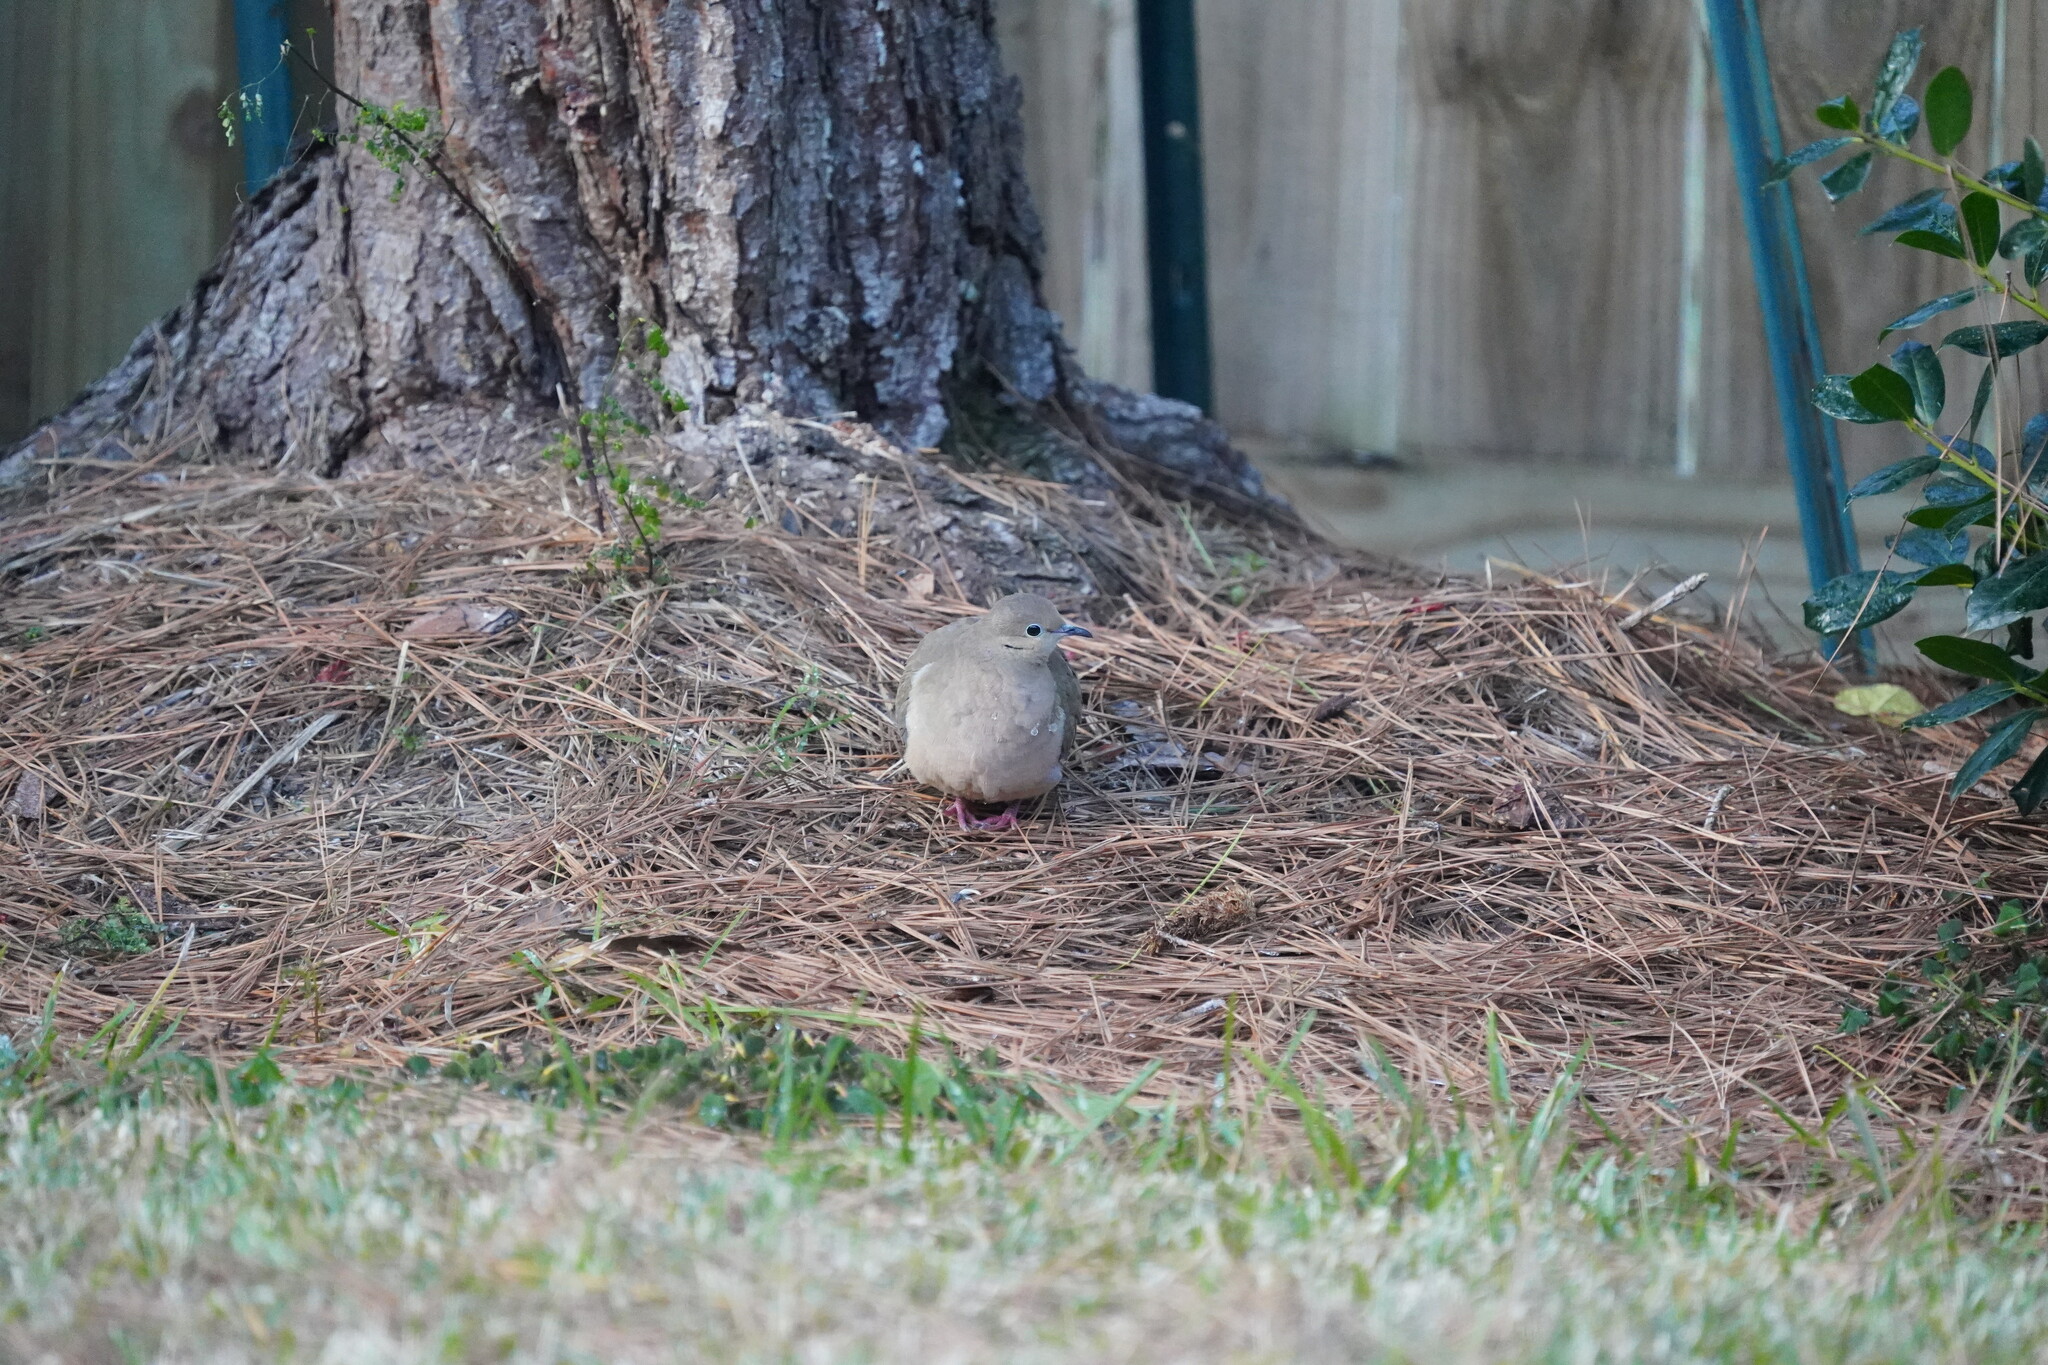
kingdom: Animalia
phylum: Chordata
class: Aves
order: Columbiformes
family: Columbidae
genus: Zenaida
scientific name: Zenaida macroura
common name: Mourning dove
